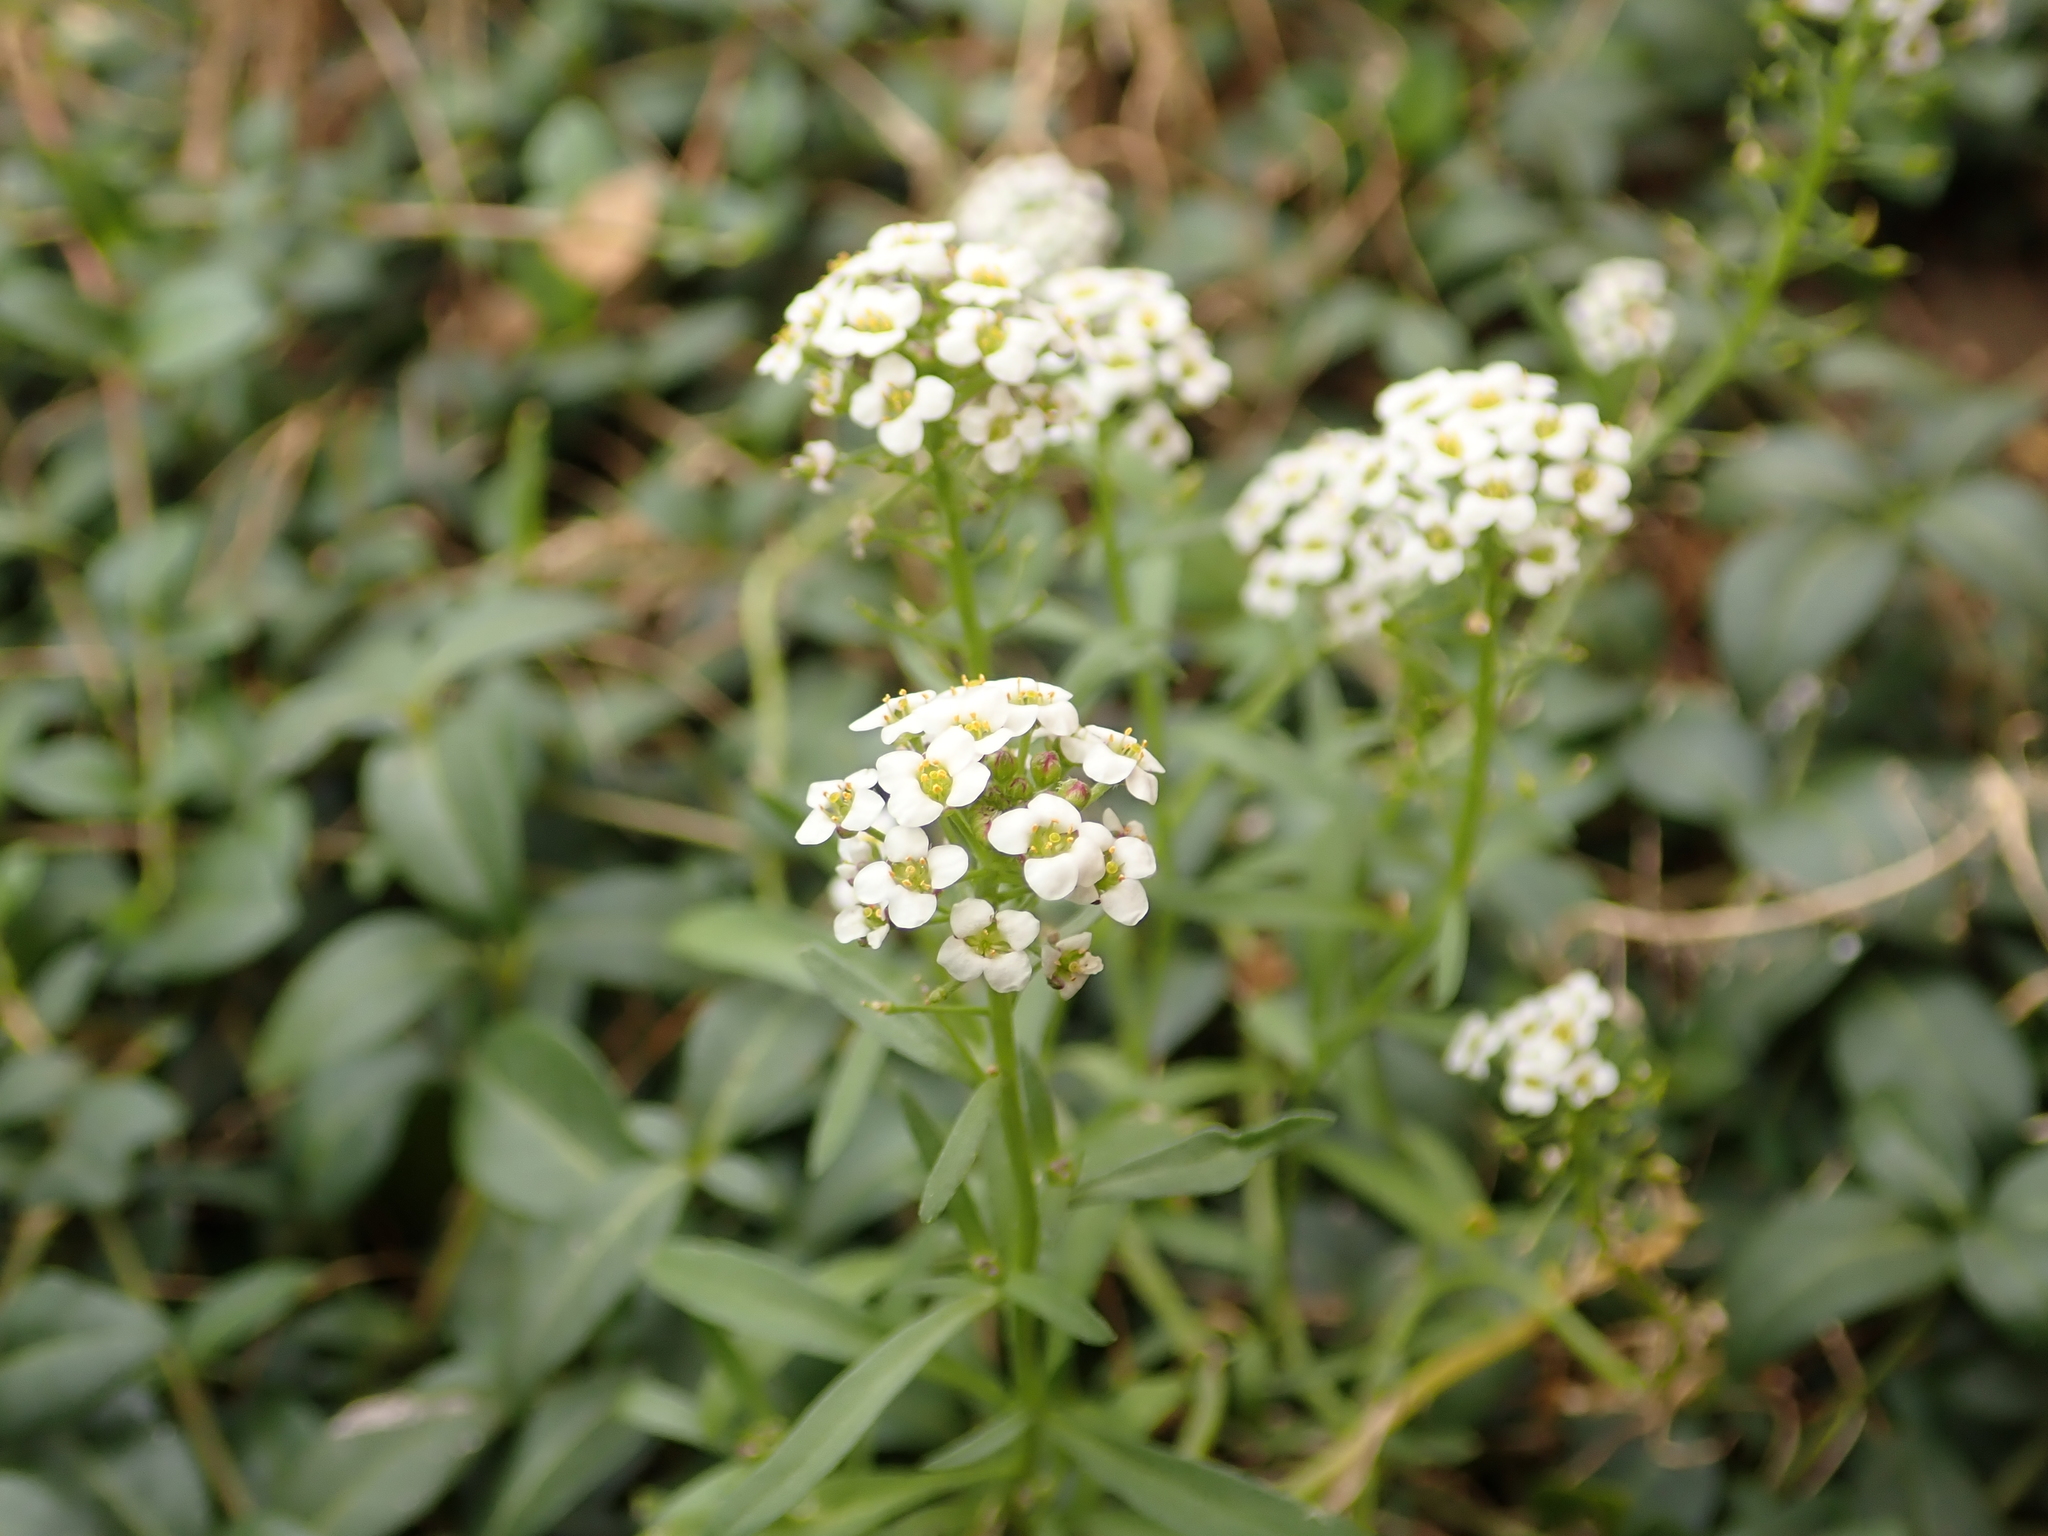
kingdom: Plantae
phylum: Tracheophyta
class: Magnoliopsida
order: Brassicales
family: Brassicaceae
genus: Lobularia
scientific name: Lobularia maritima
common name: Sweet alison
